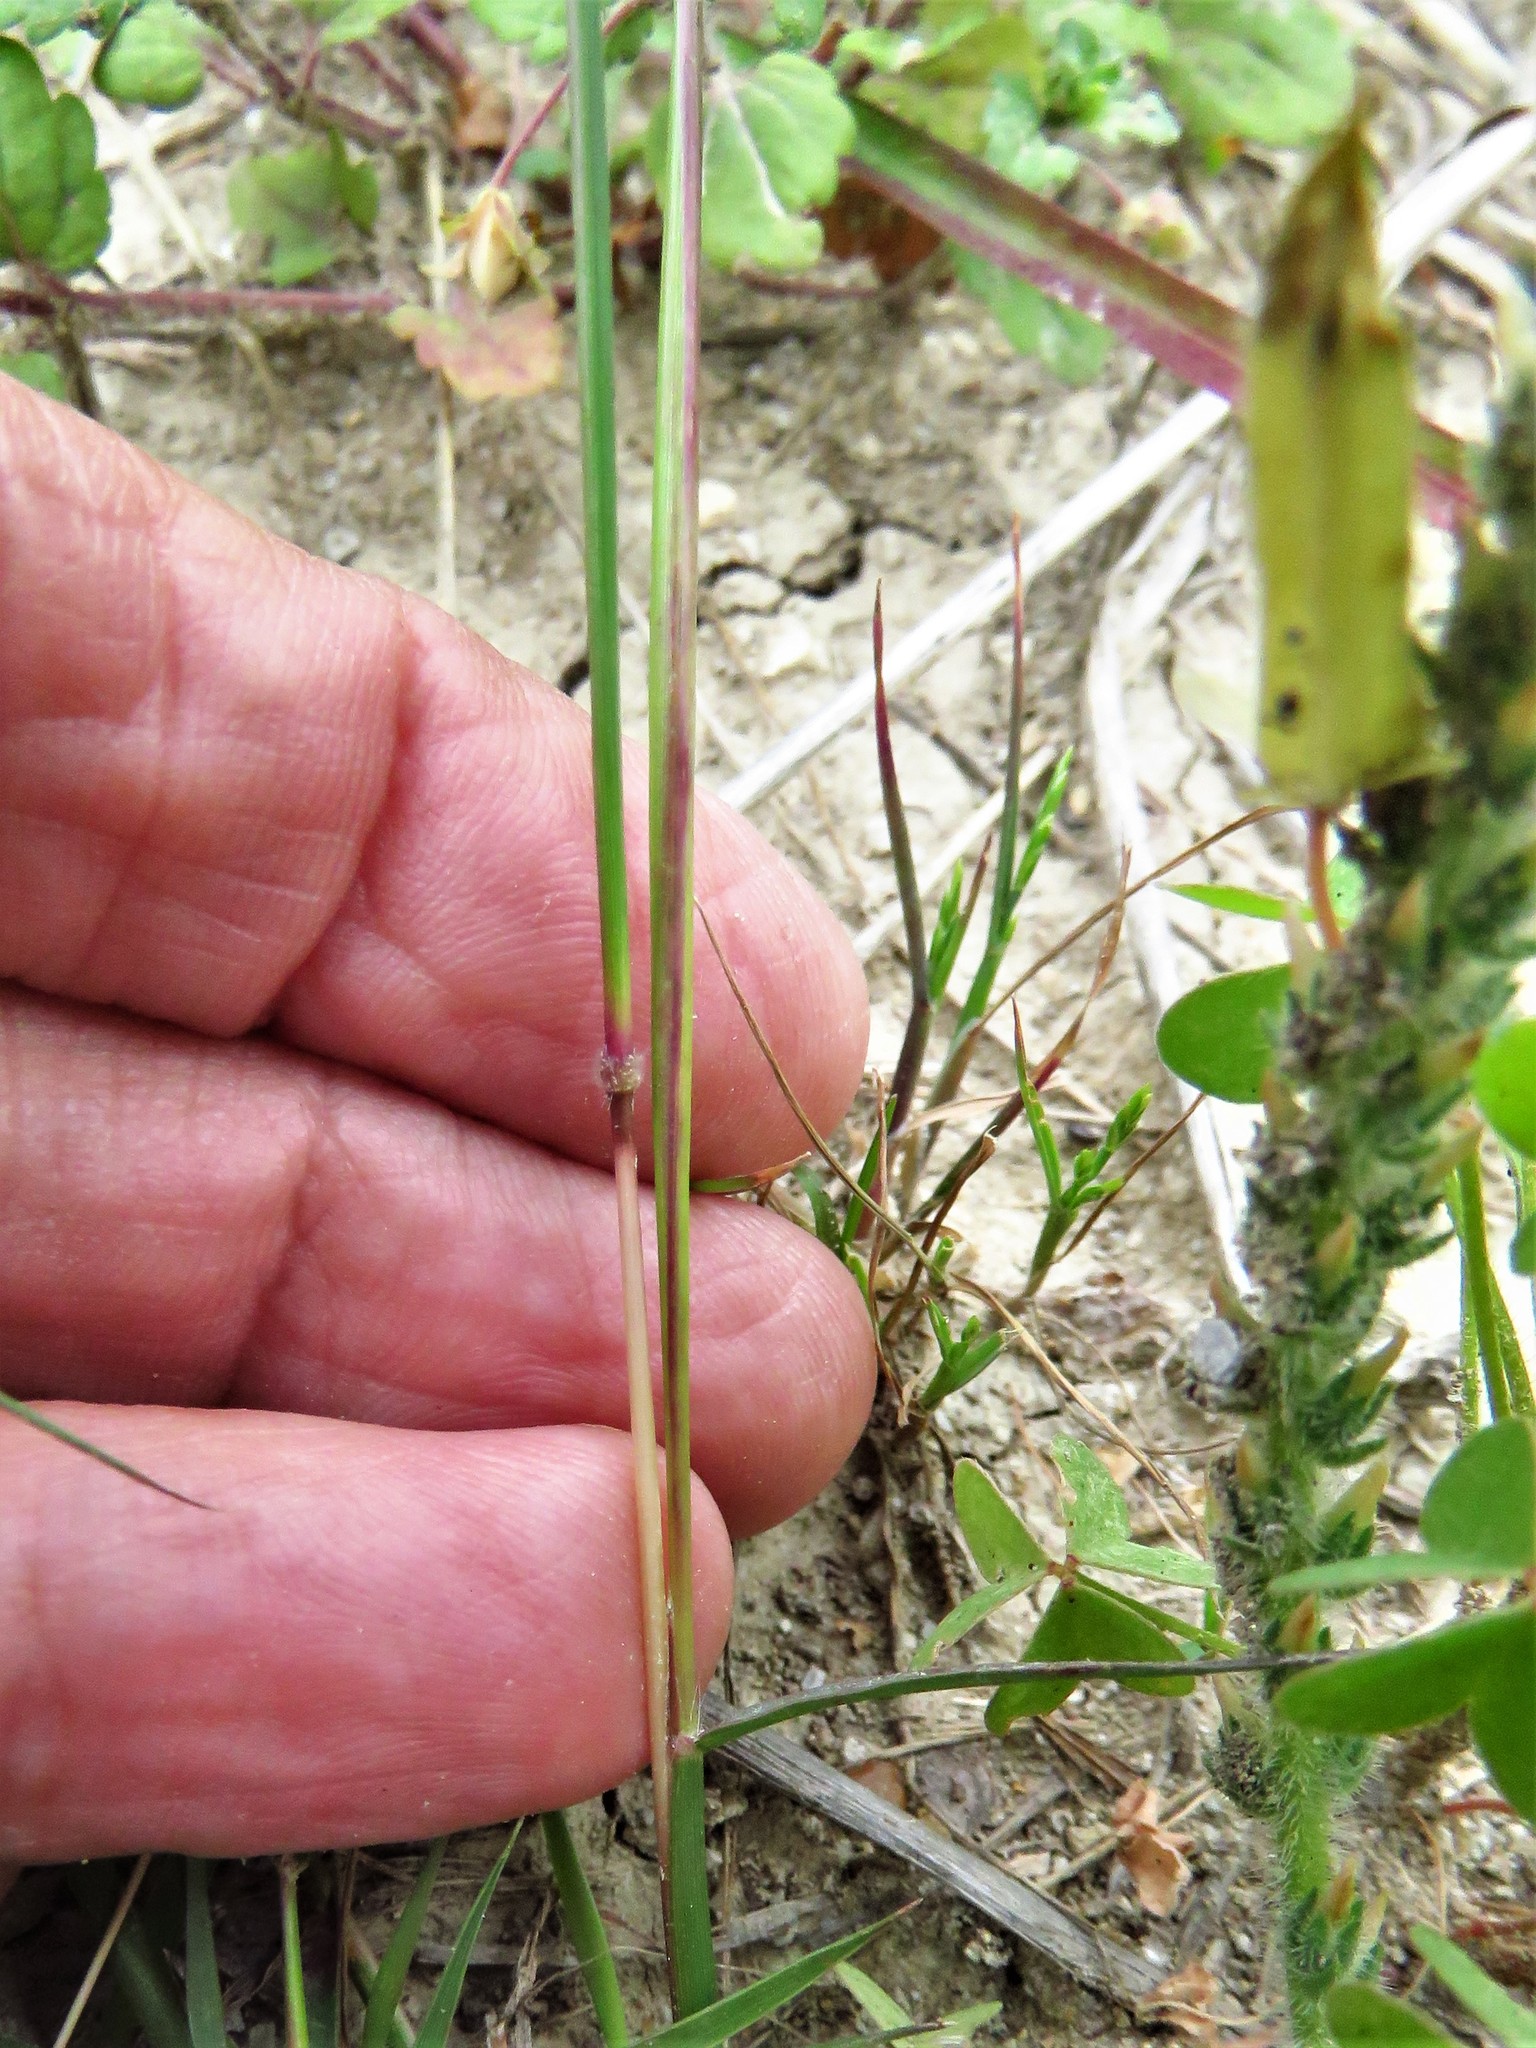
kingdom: Plantae
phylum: Tracheophyta
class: Liliopsida
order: Poales
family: Poaceae
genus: Bothriochloa
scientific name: Bothriochloa ischaemum
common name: Yellow bluestem
